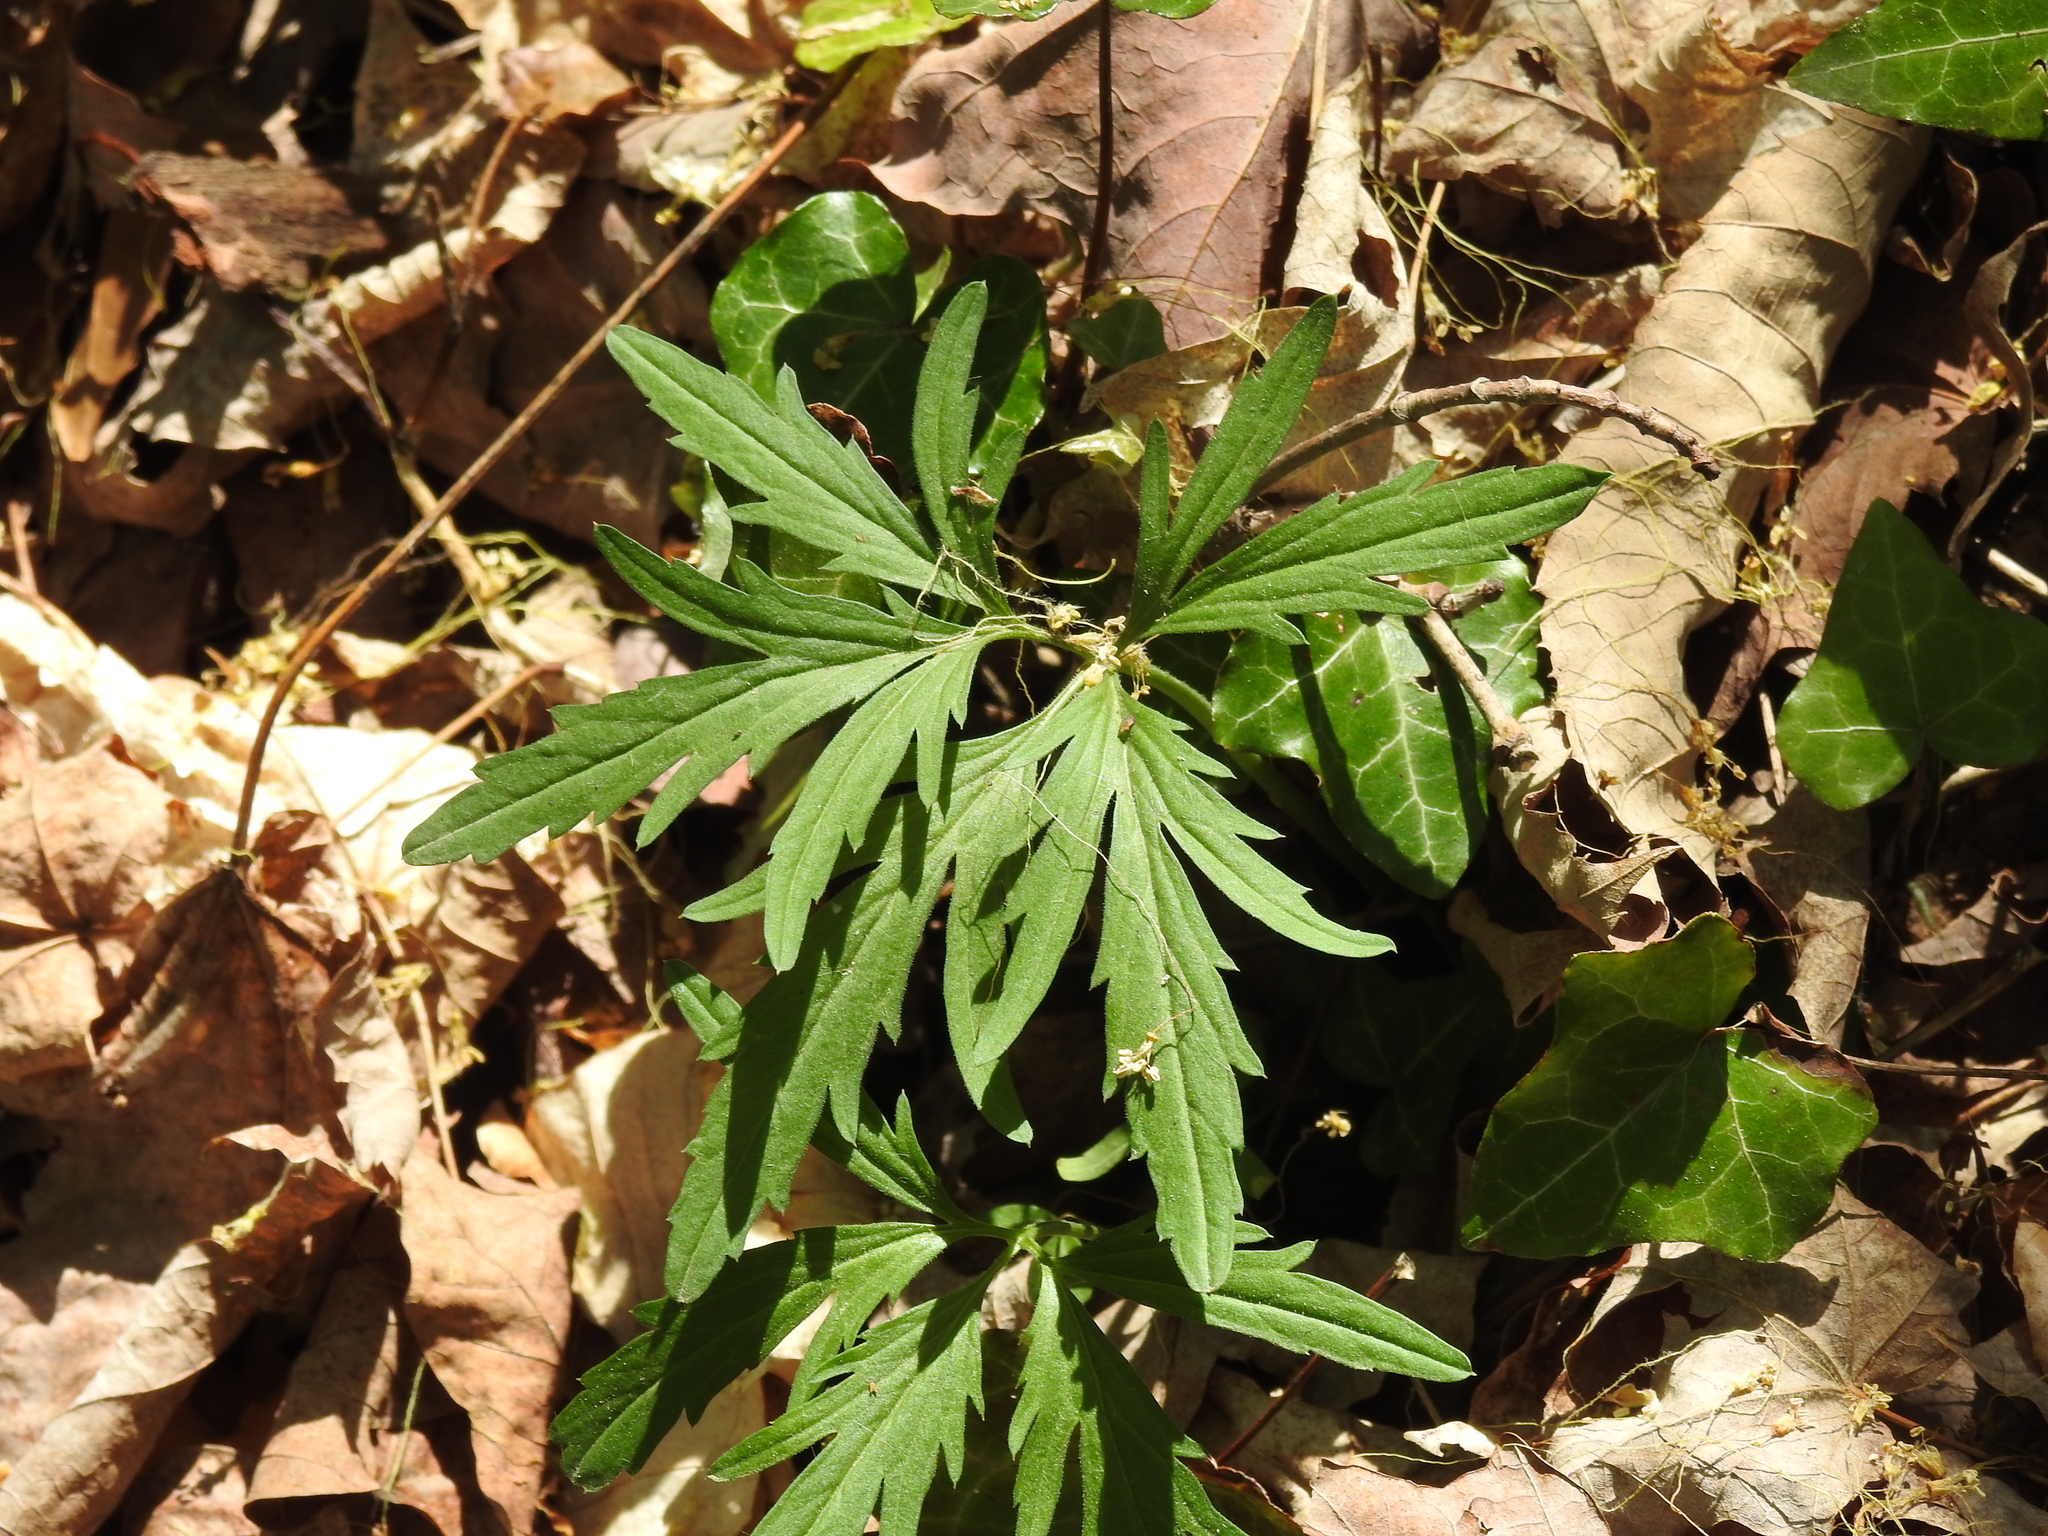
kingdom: Plantae
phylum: Tracheophyta
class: Magnoliopsida
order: Brassicales
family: Brassicaceae
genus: Cardamine
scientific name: Cardamine concatenata
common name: Cut-leaf toothcup
